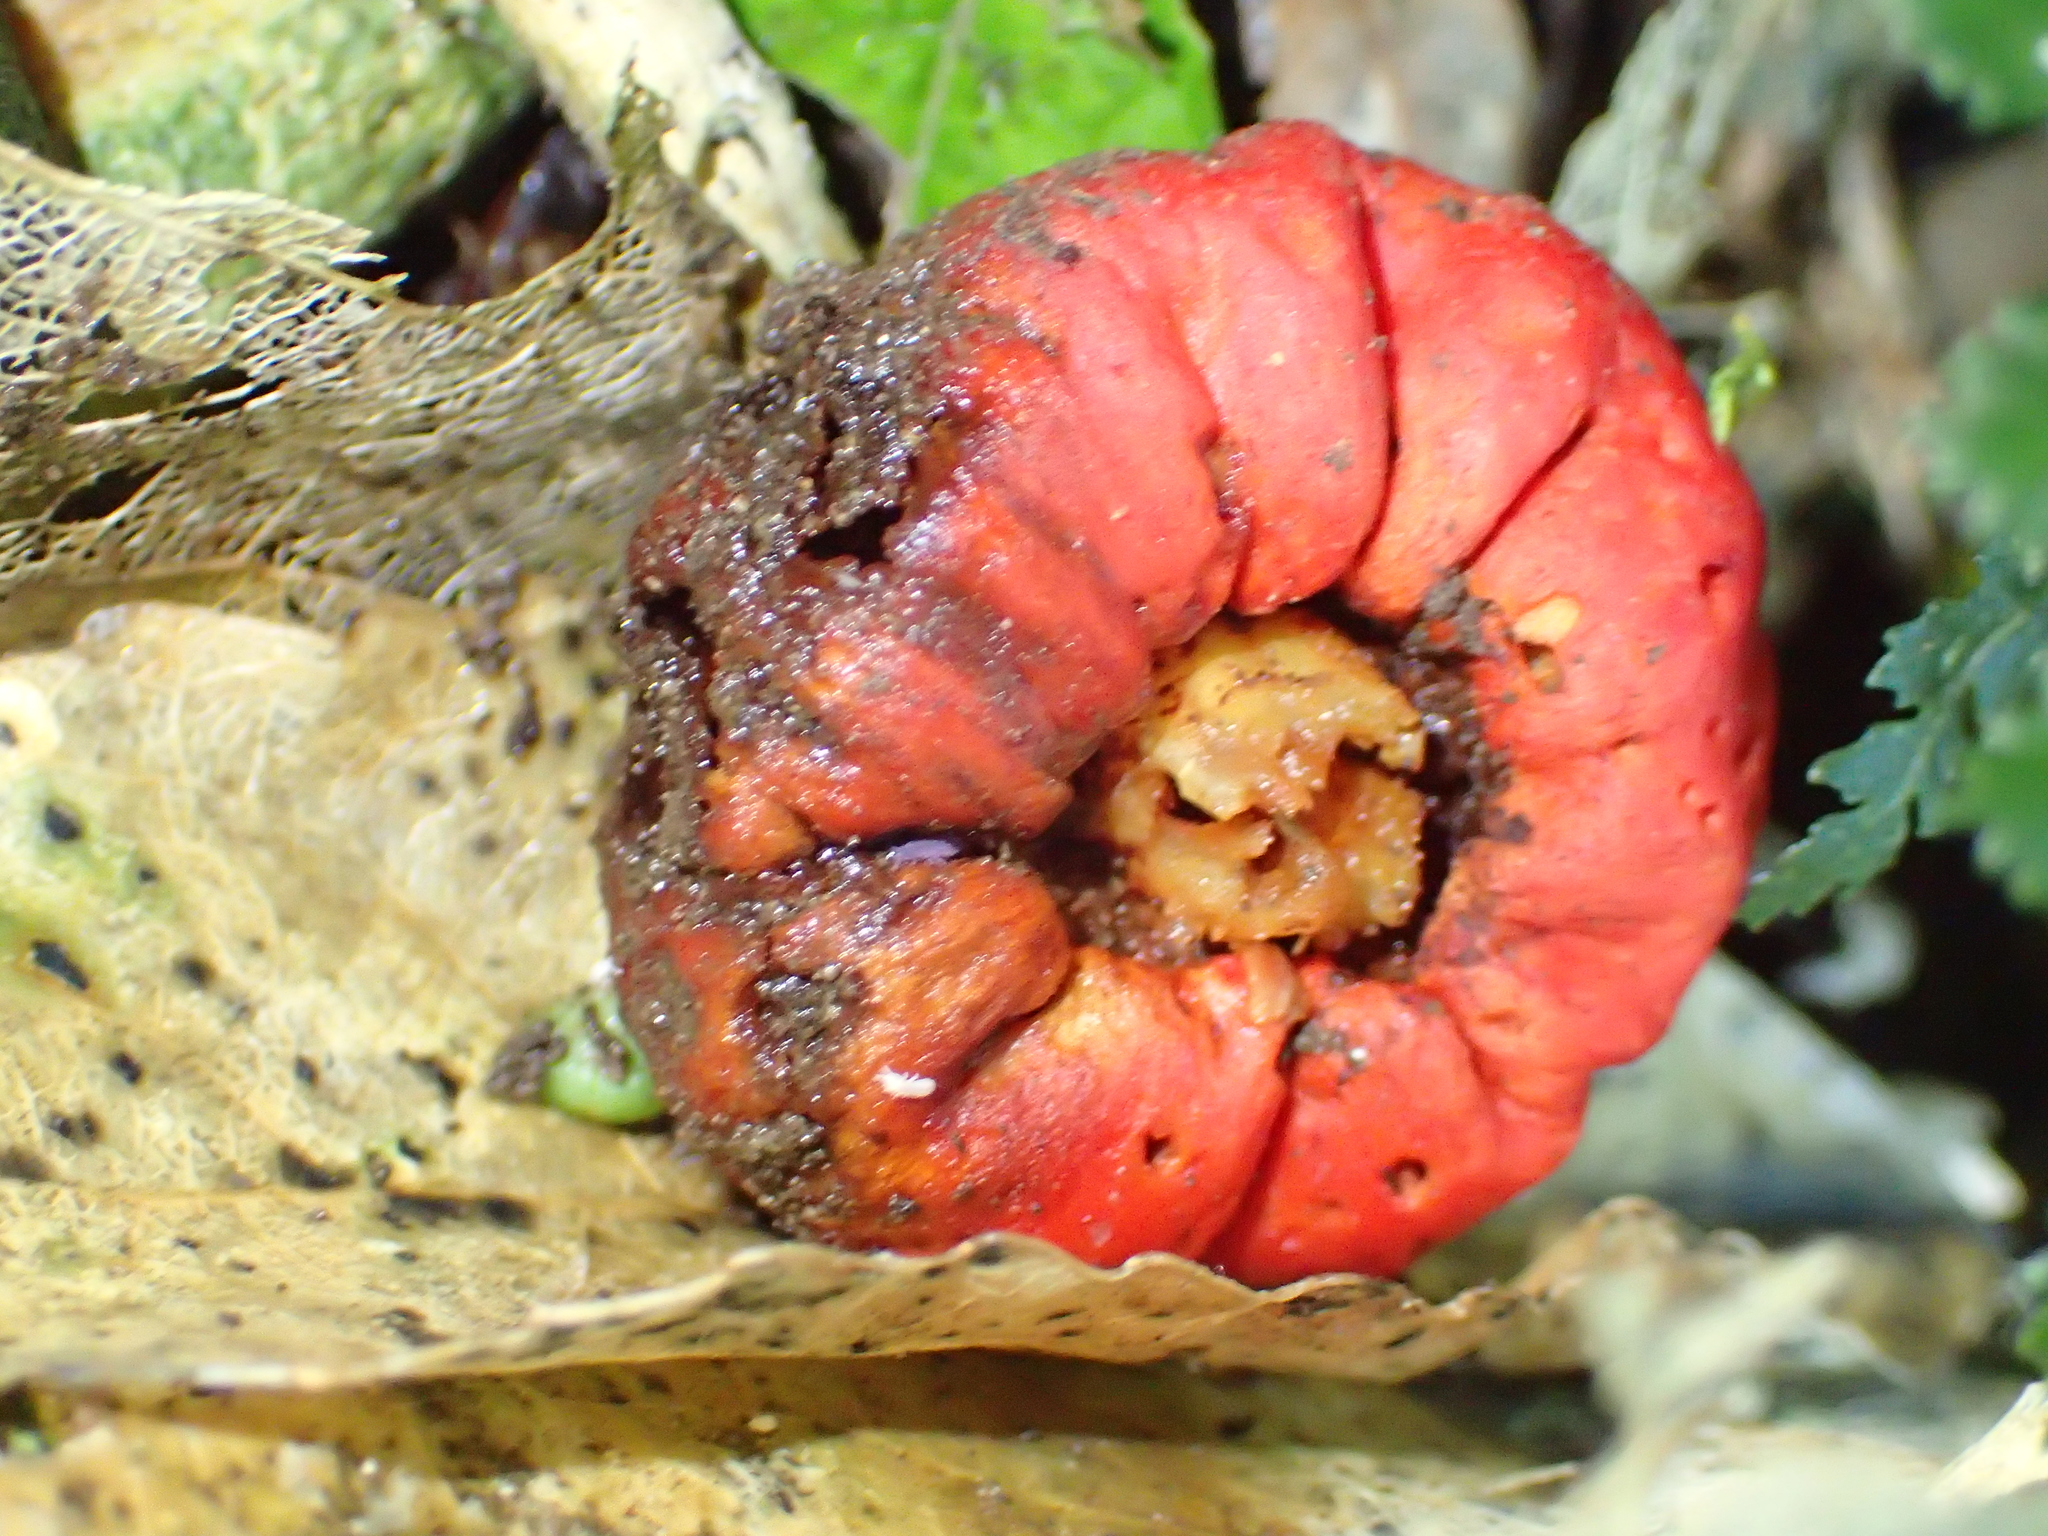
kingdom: Fungi
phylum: Basidiomycota
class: Agaricomycetes
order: Agaricales
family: Strophariaceae
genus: Leratiomyces
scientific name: Leratiomyces erythrocephalus
